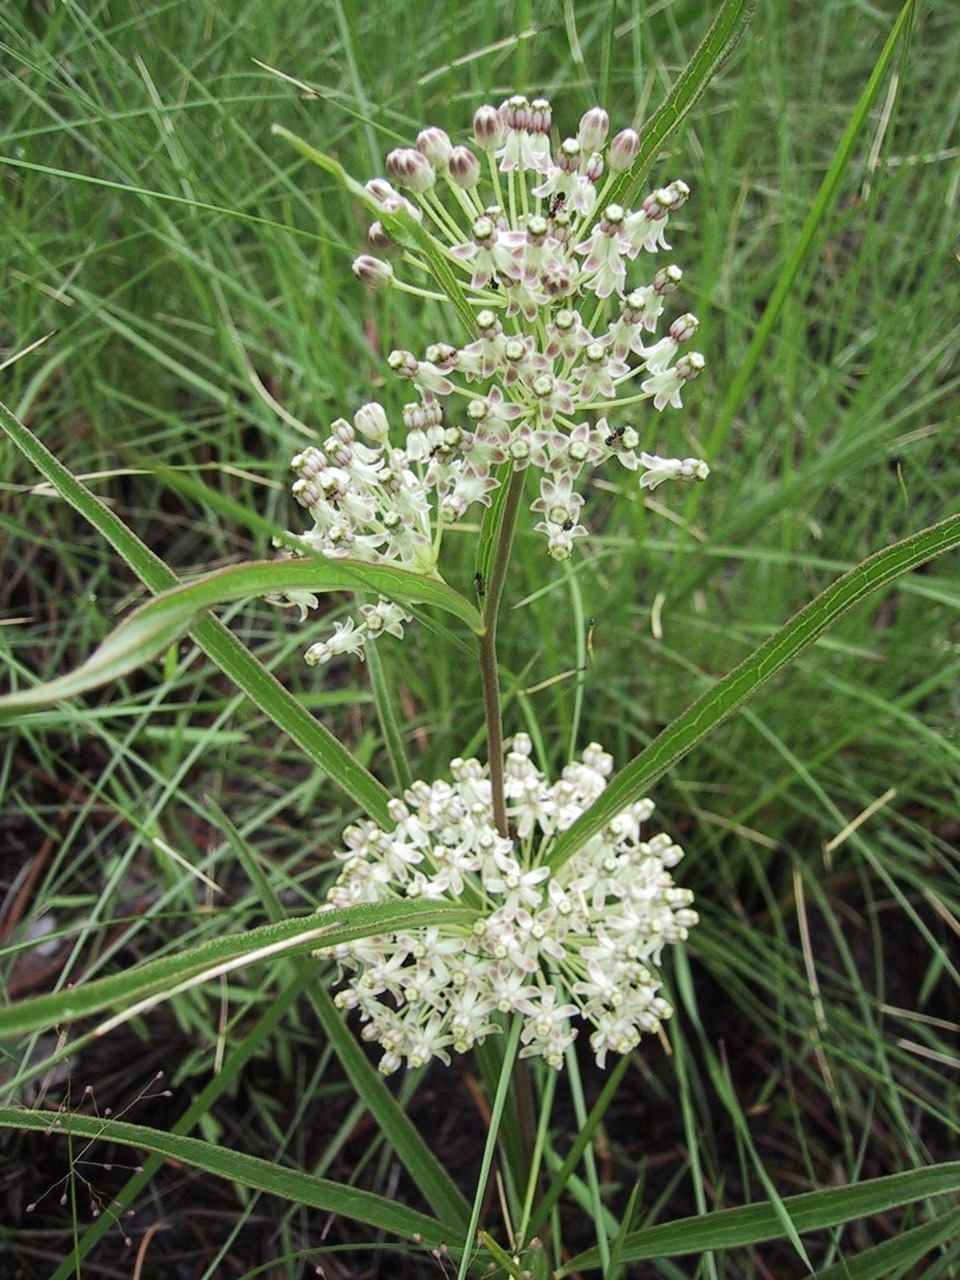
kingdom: Plantae
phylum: Tracheophyta
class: Magnoliopsida
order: Gentianales
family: Apocynaceae
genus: Asclepias
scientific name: Asclepias longifolia
